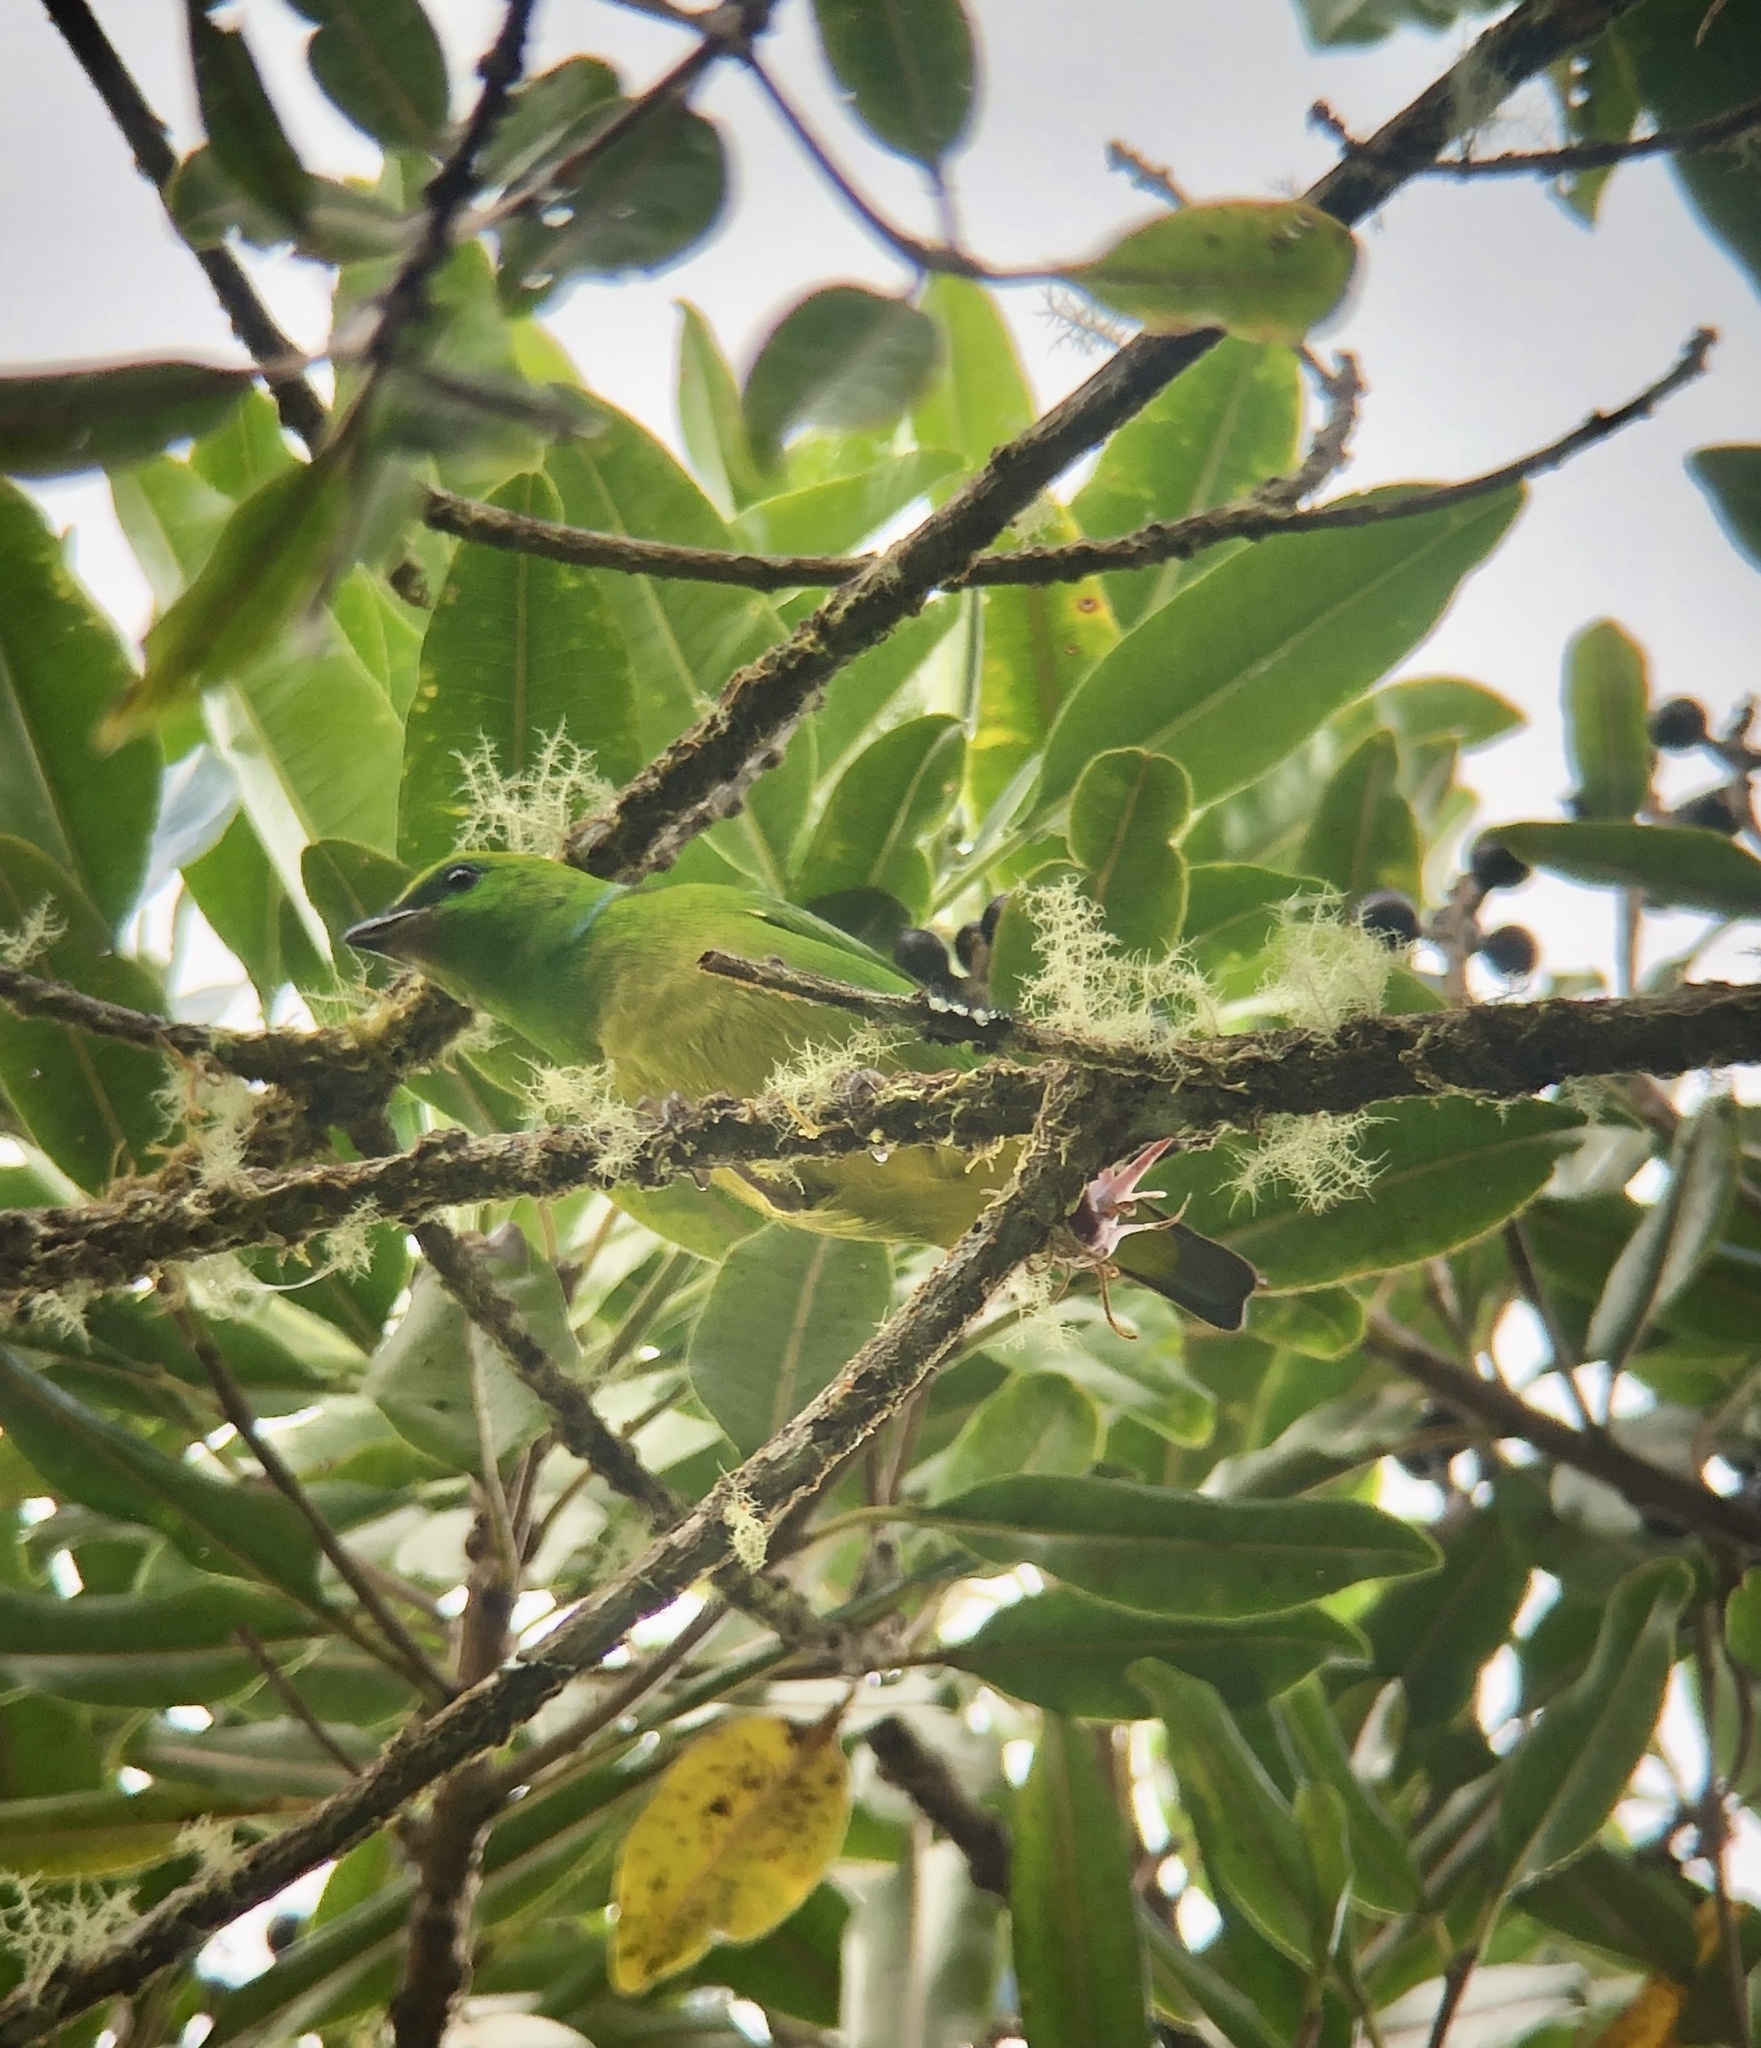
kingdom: Animalia
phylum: Chordata
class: Aves
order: Passeriformes
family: Fringillidae
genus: Chlorophonia
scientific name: Chlorophonia callophrys
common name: Golden-browed chlorophonia
